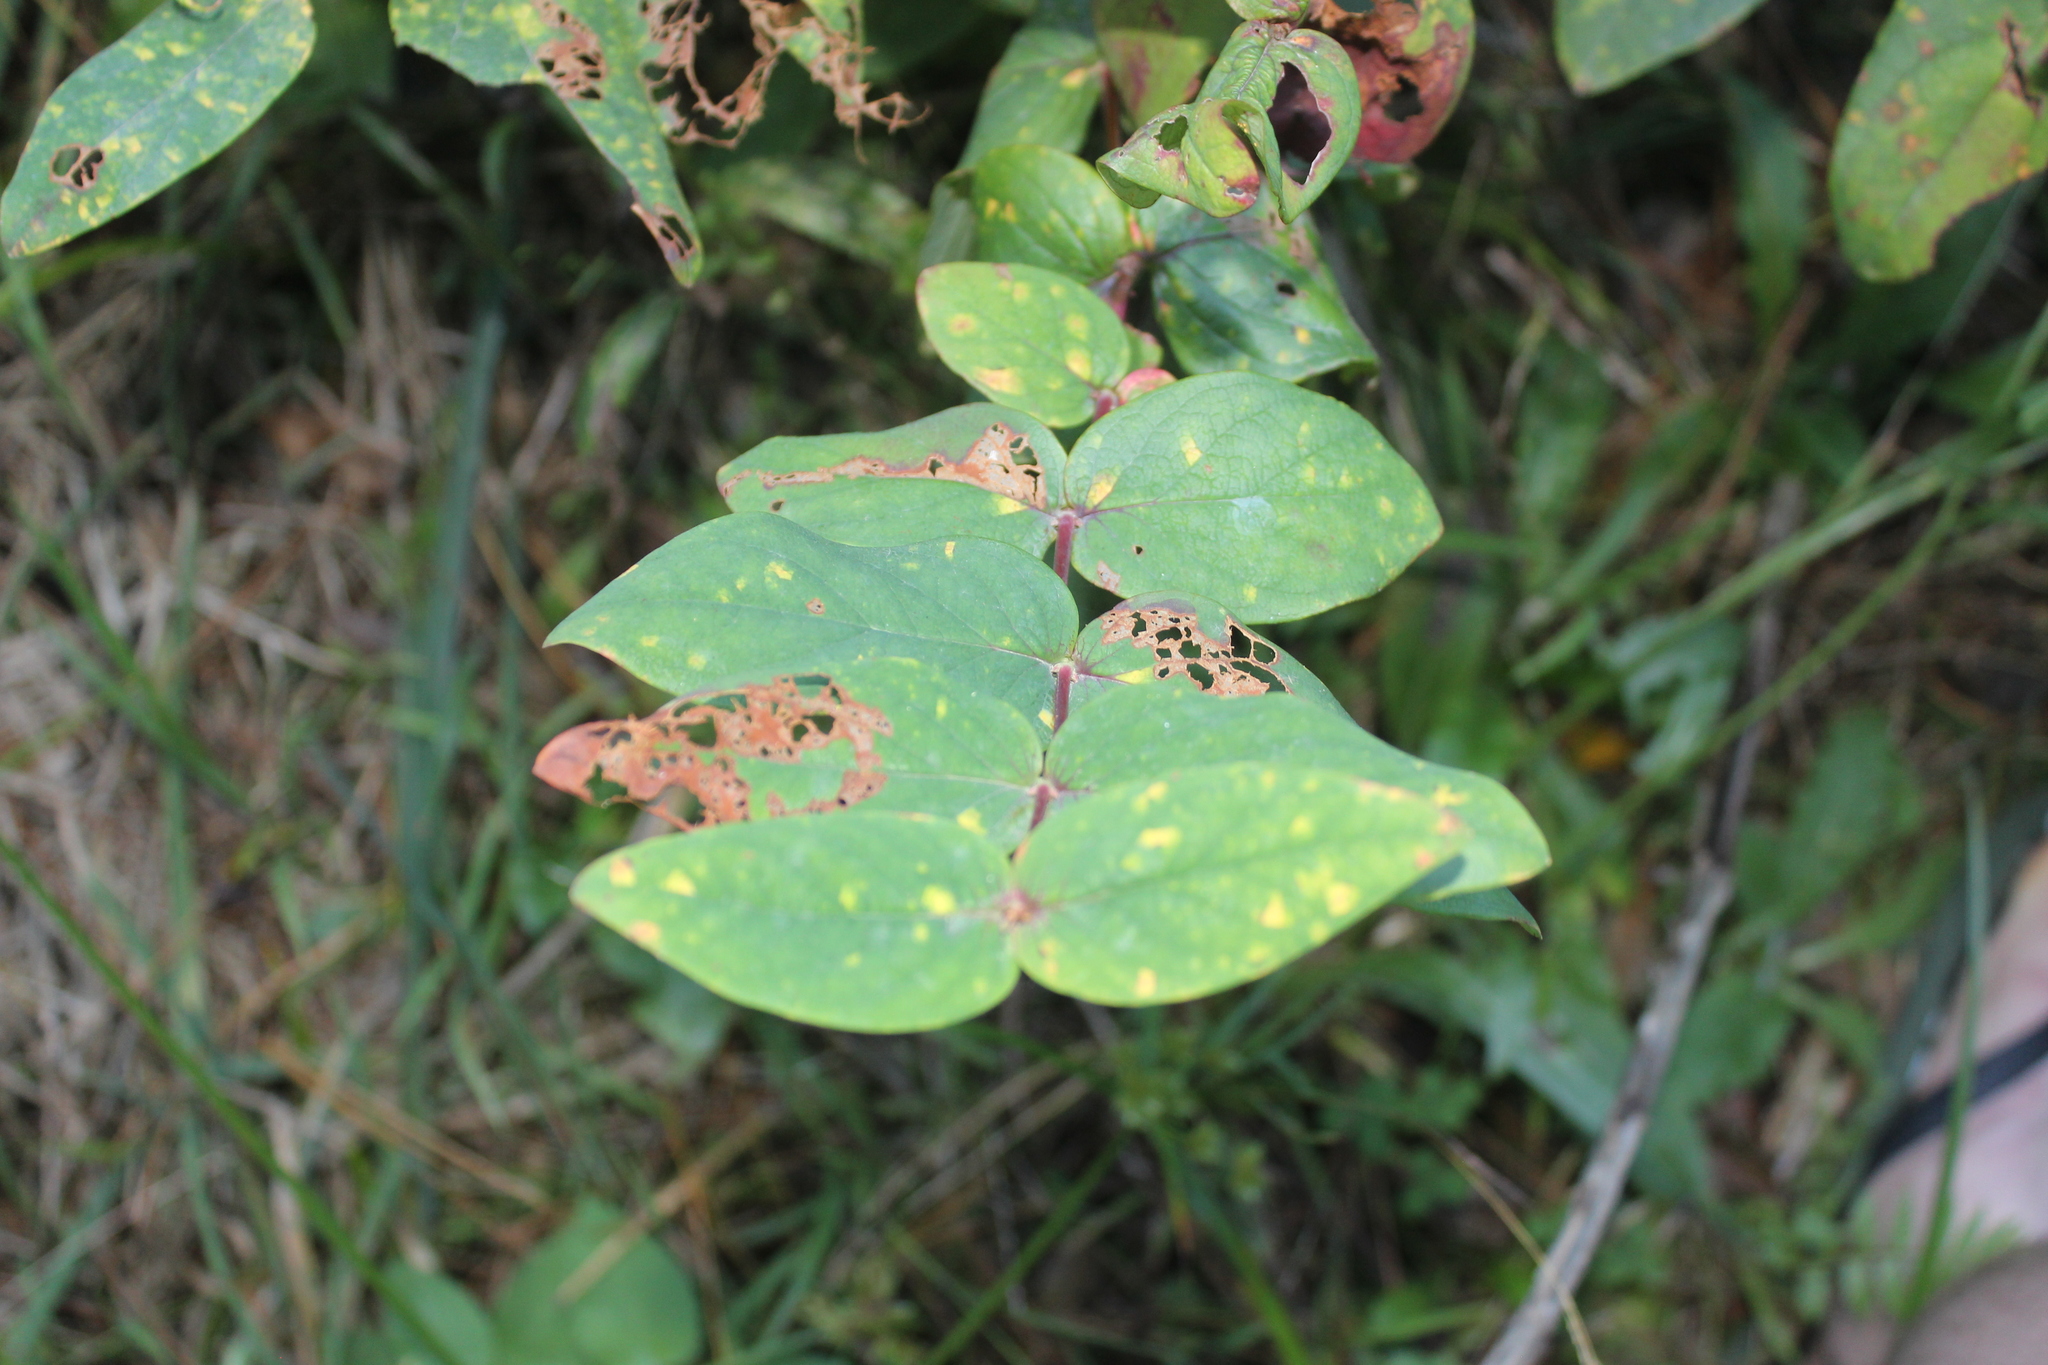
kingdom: Plantae
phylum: Tracheophyta
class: Magnoliopsida
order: Malpighiales
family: Hypericaceae
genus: Hypericum
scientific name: Hypericum androsaemum
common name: Sweet-amber
